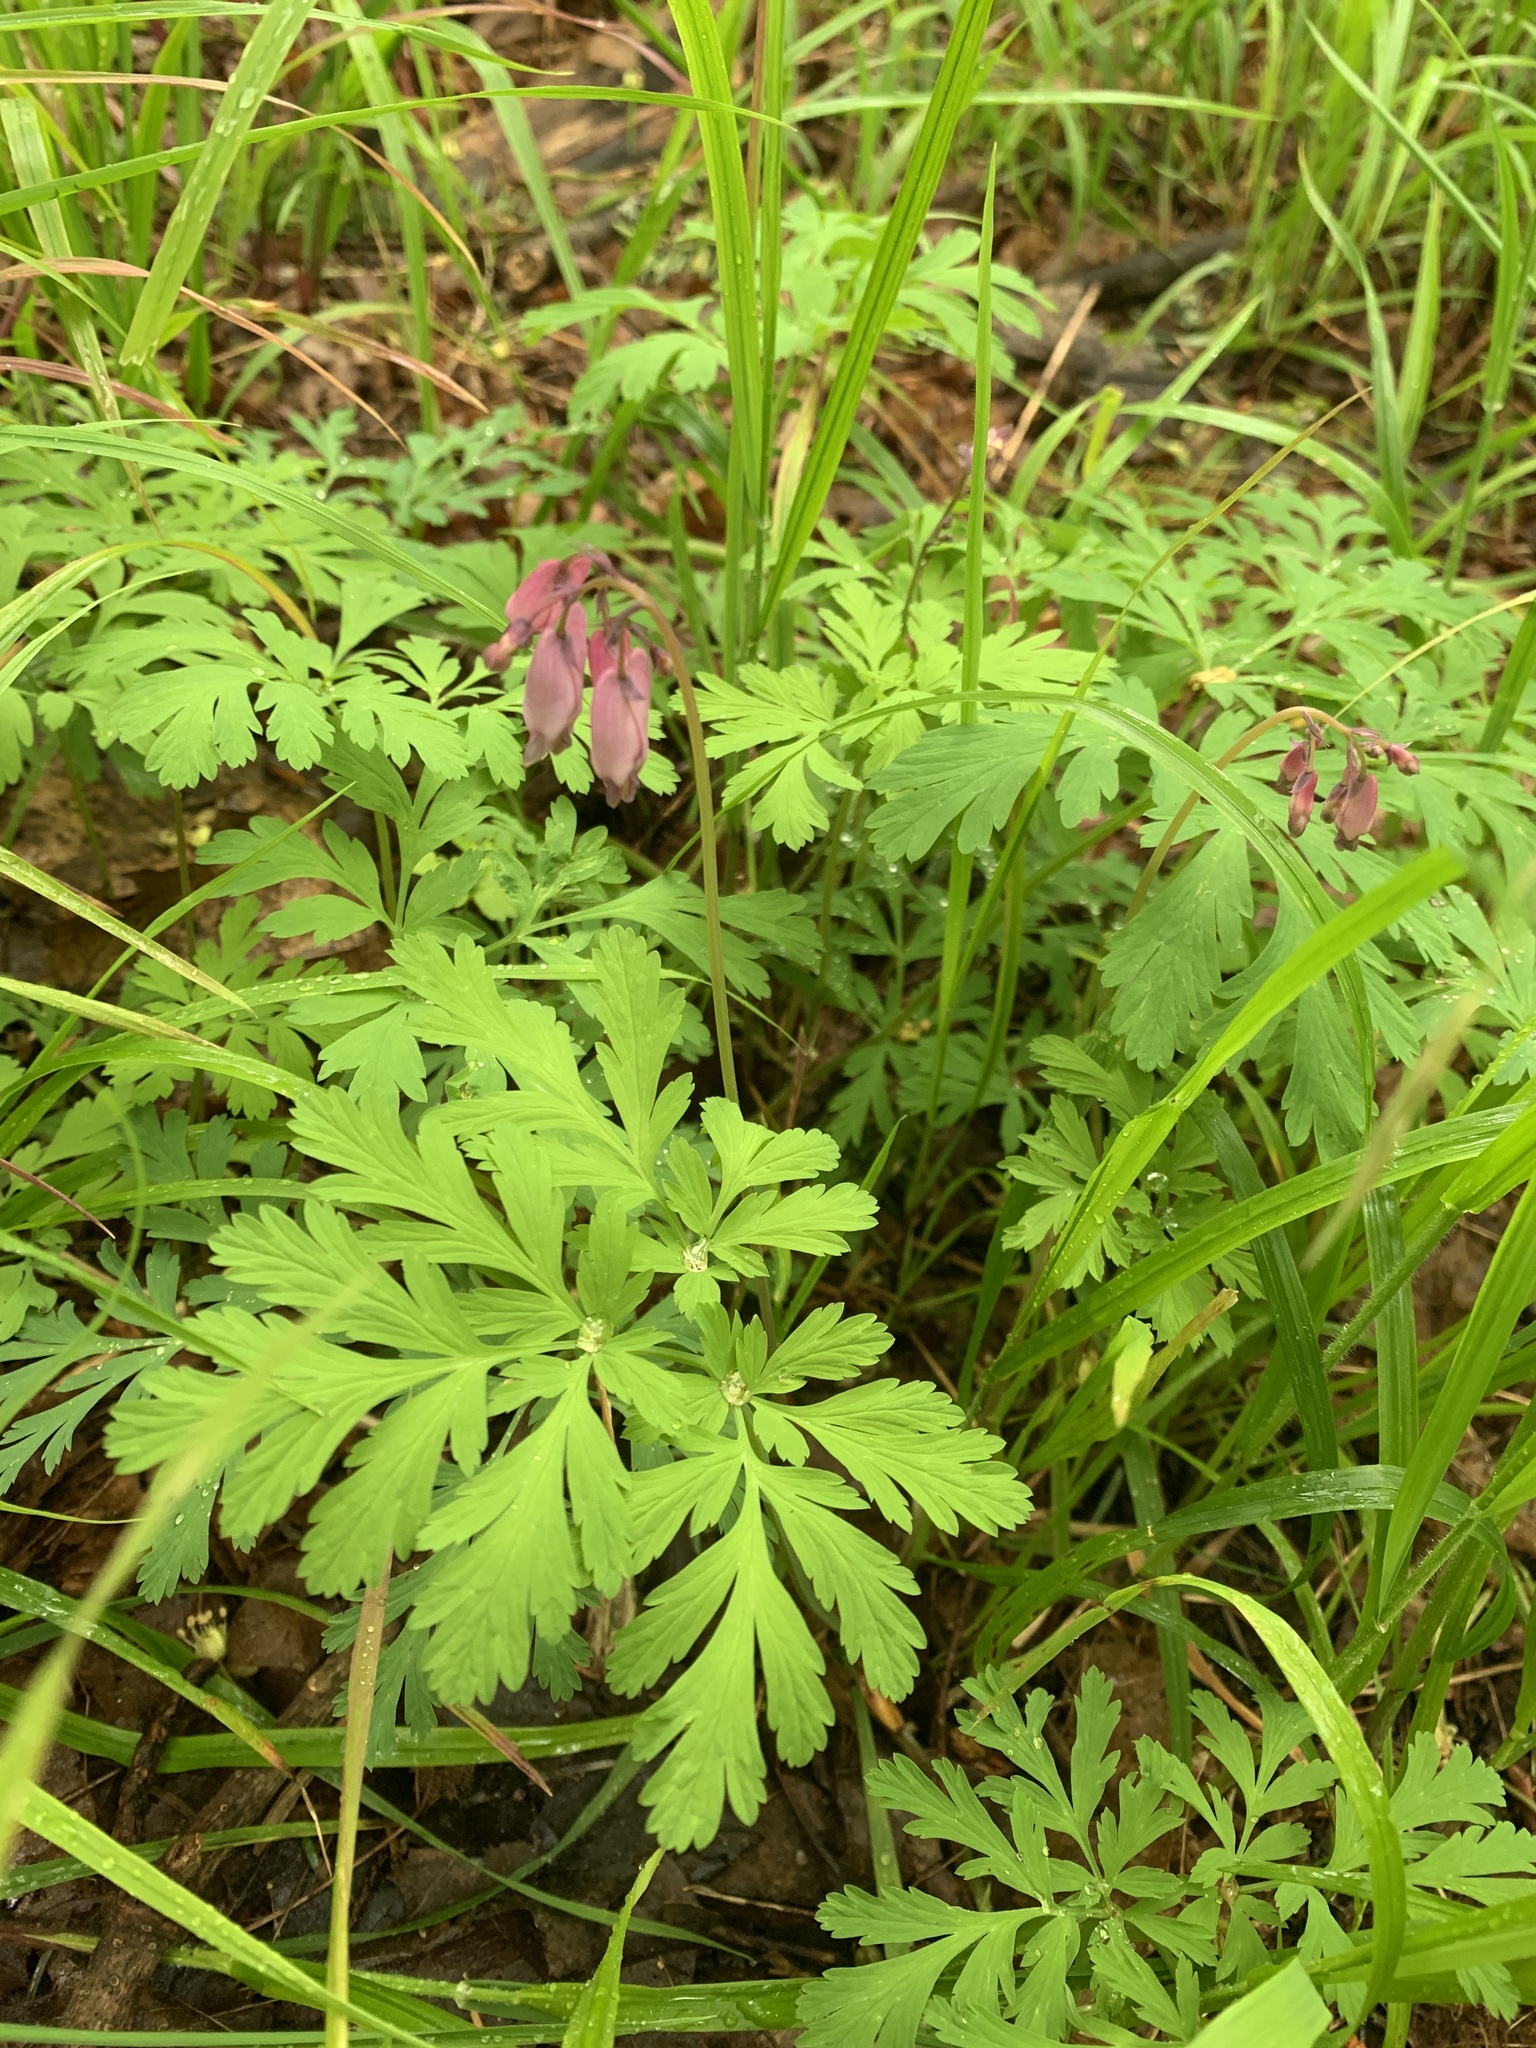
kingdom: Plantae
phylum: Tracheophyta
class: Magnoliopsida
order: Ranunculales
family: Papaveraceae
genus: Dicentra
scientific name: Dicentra formosa
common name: Bleeding-heart
